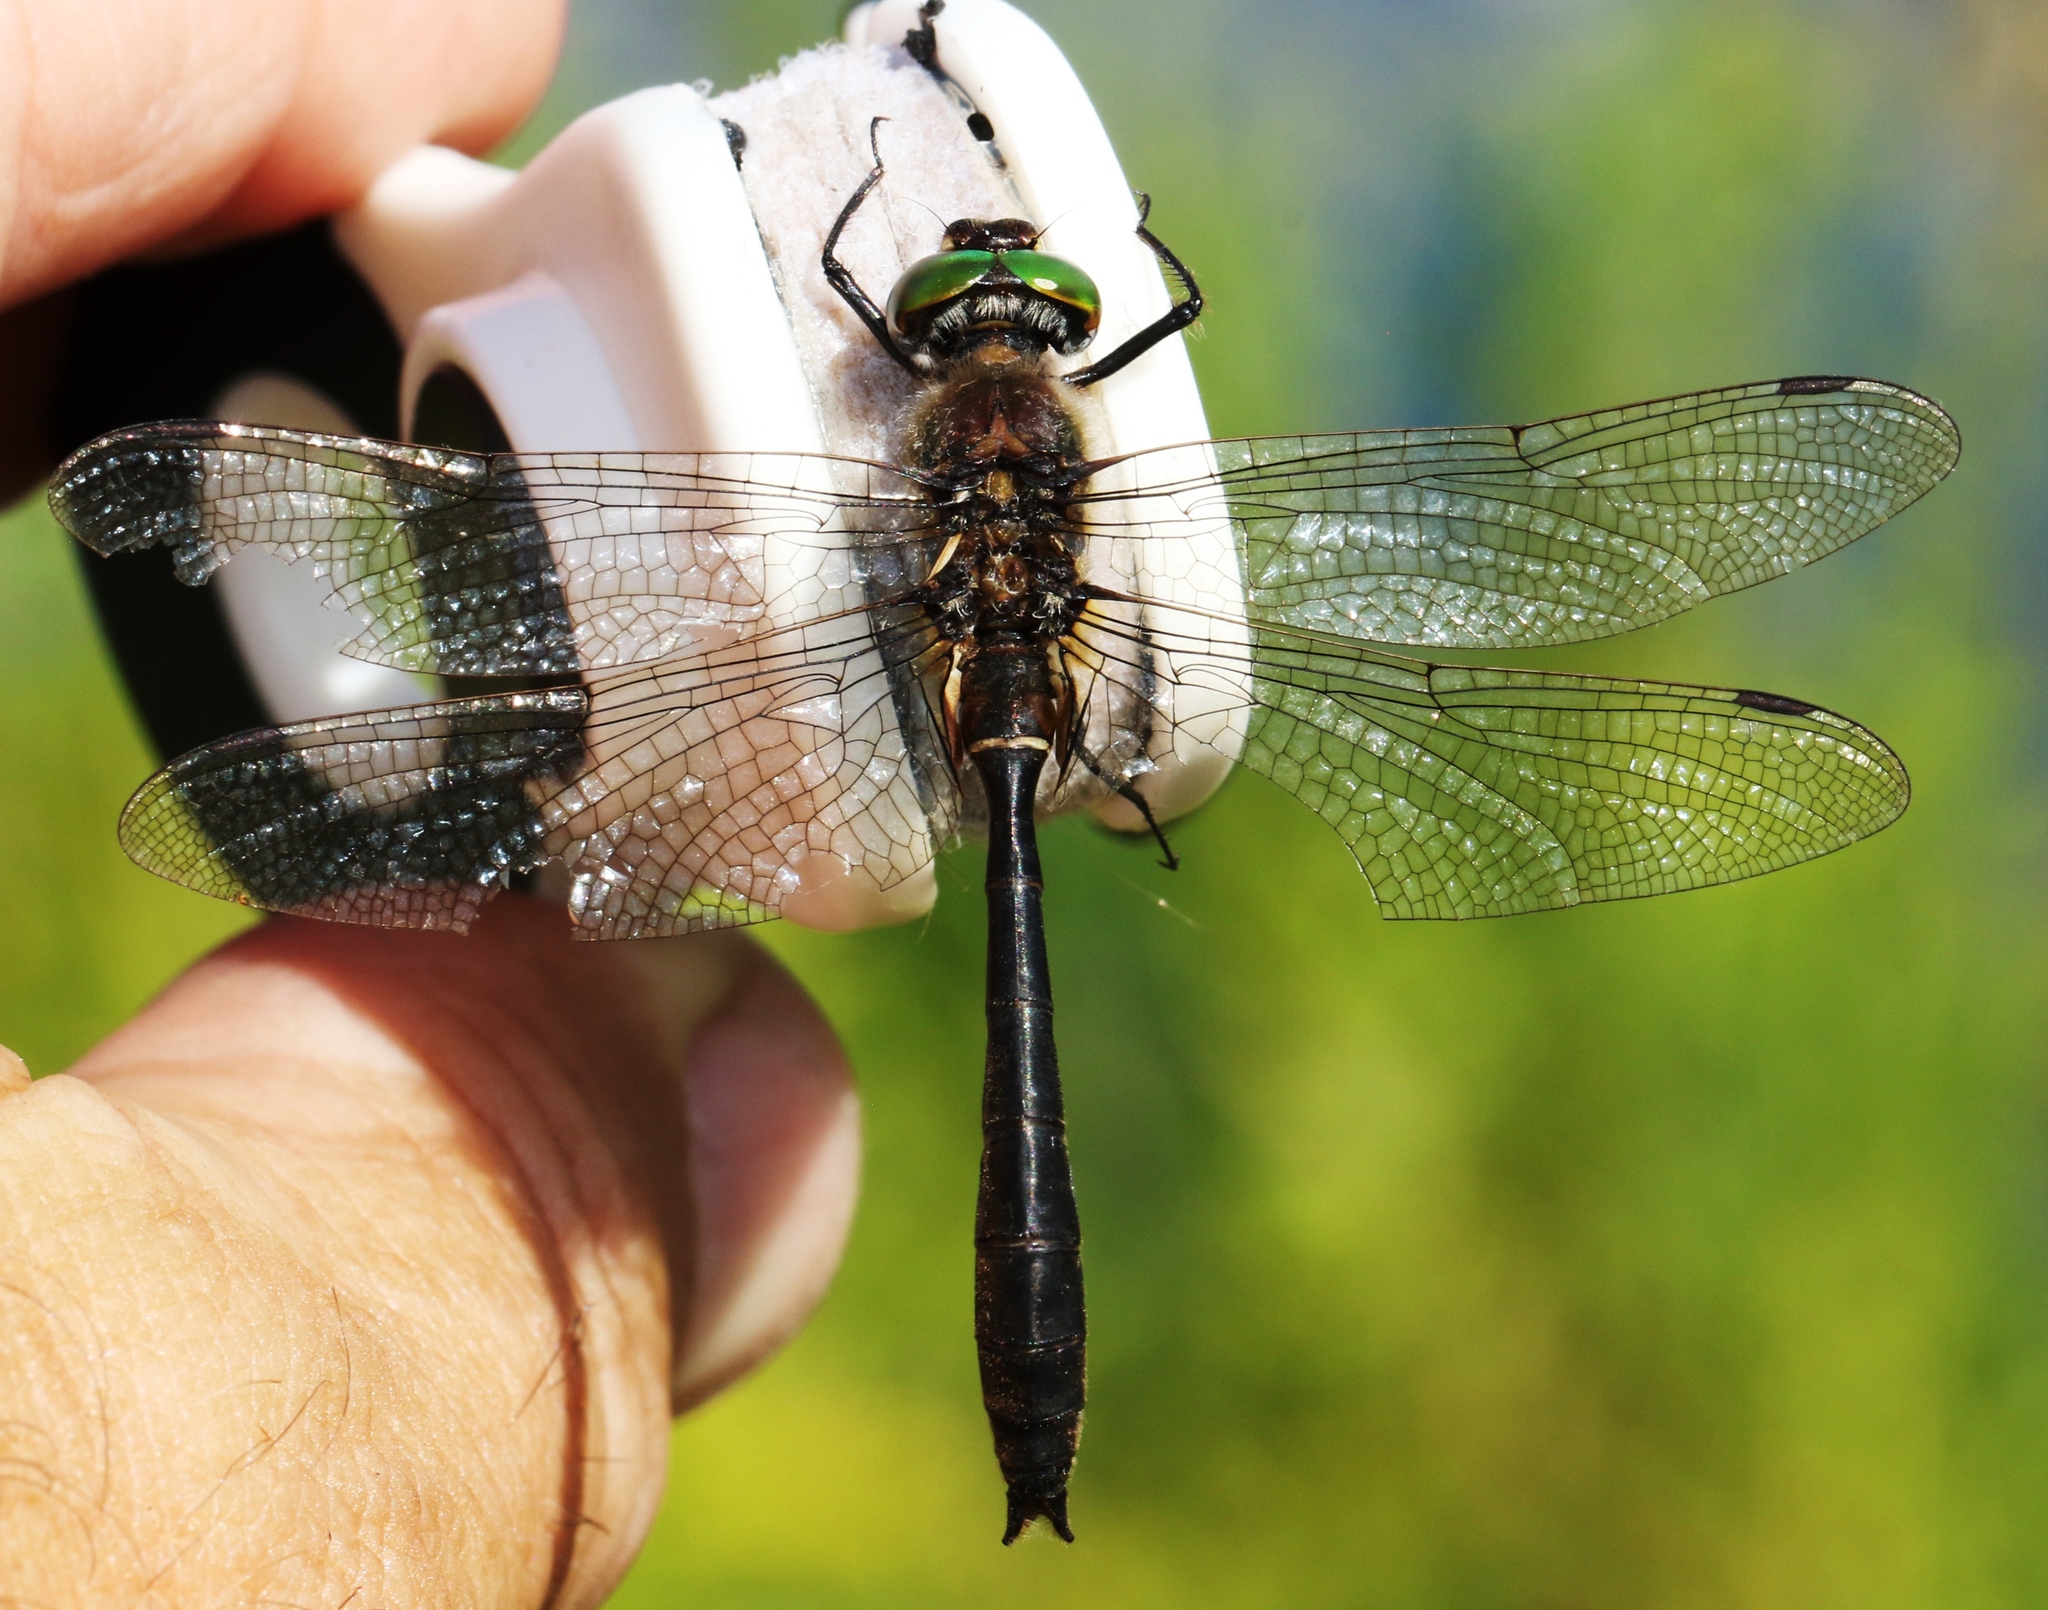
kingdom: Animalia
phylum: Arthropoda
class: Insecta
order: Odonata
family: Corduliidae
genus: Cordulia
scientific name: Cordulia shurtleffii
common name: American emerald
